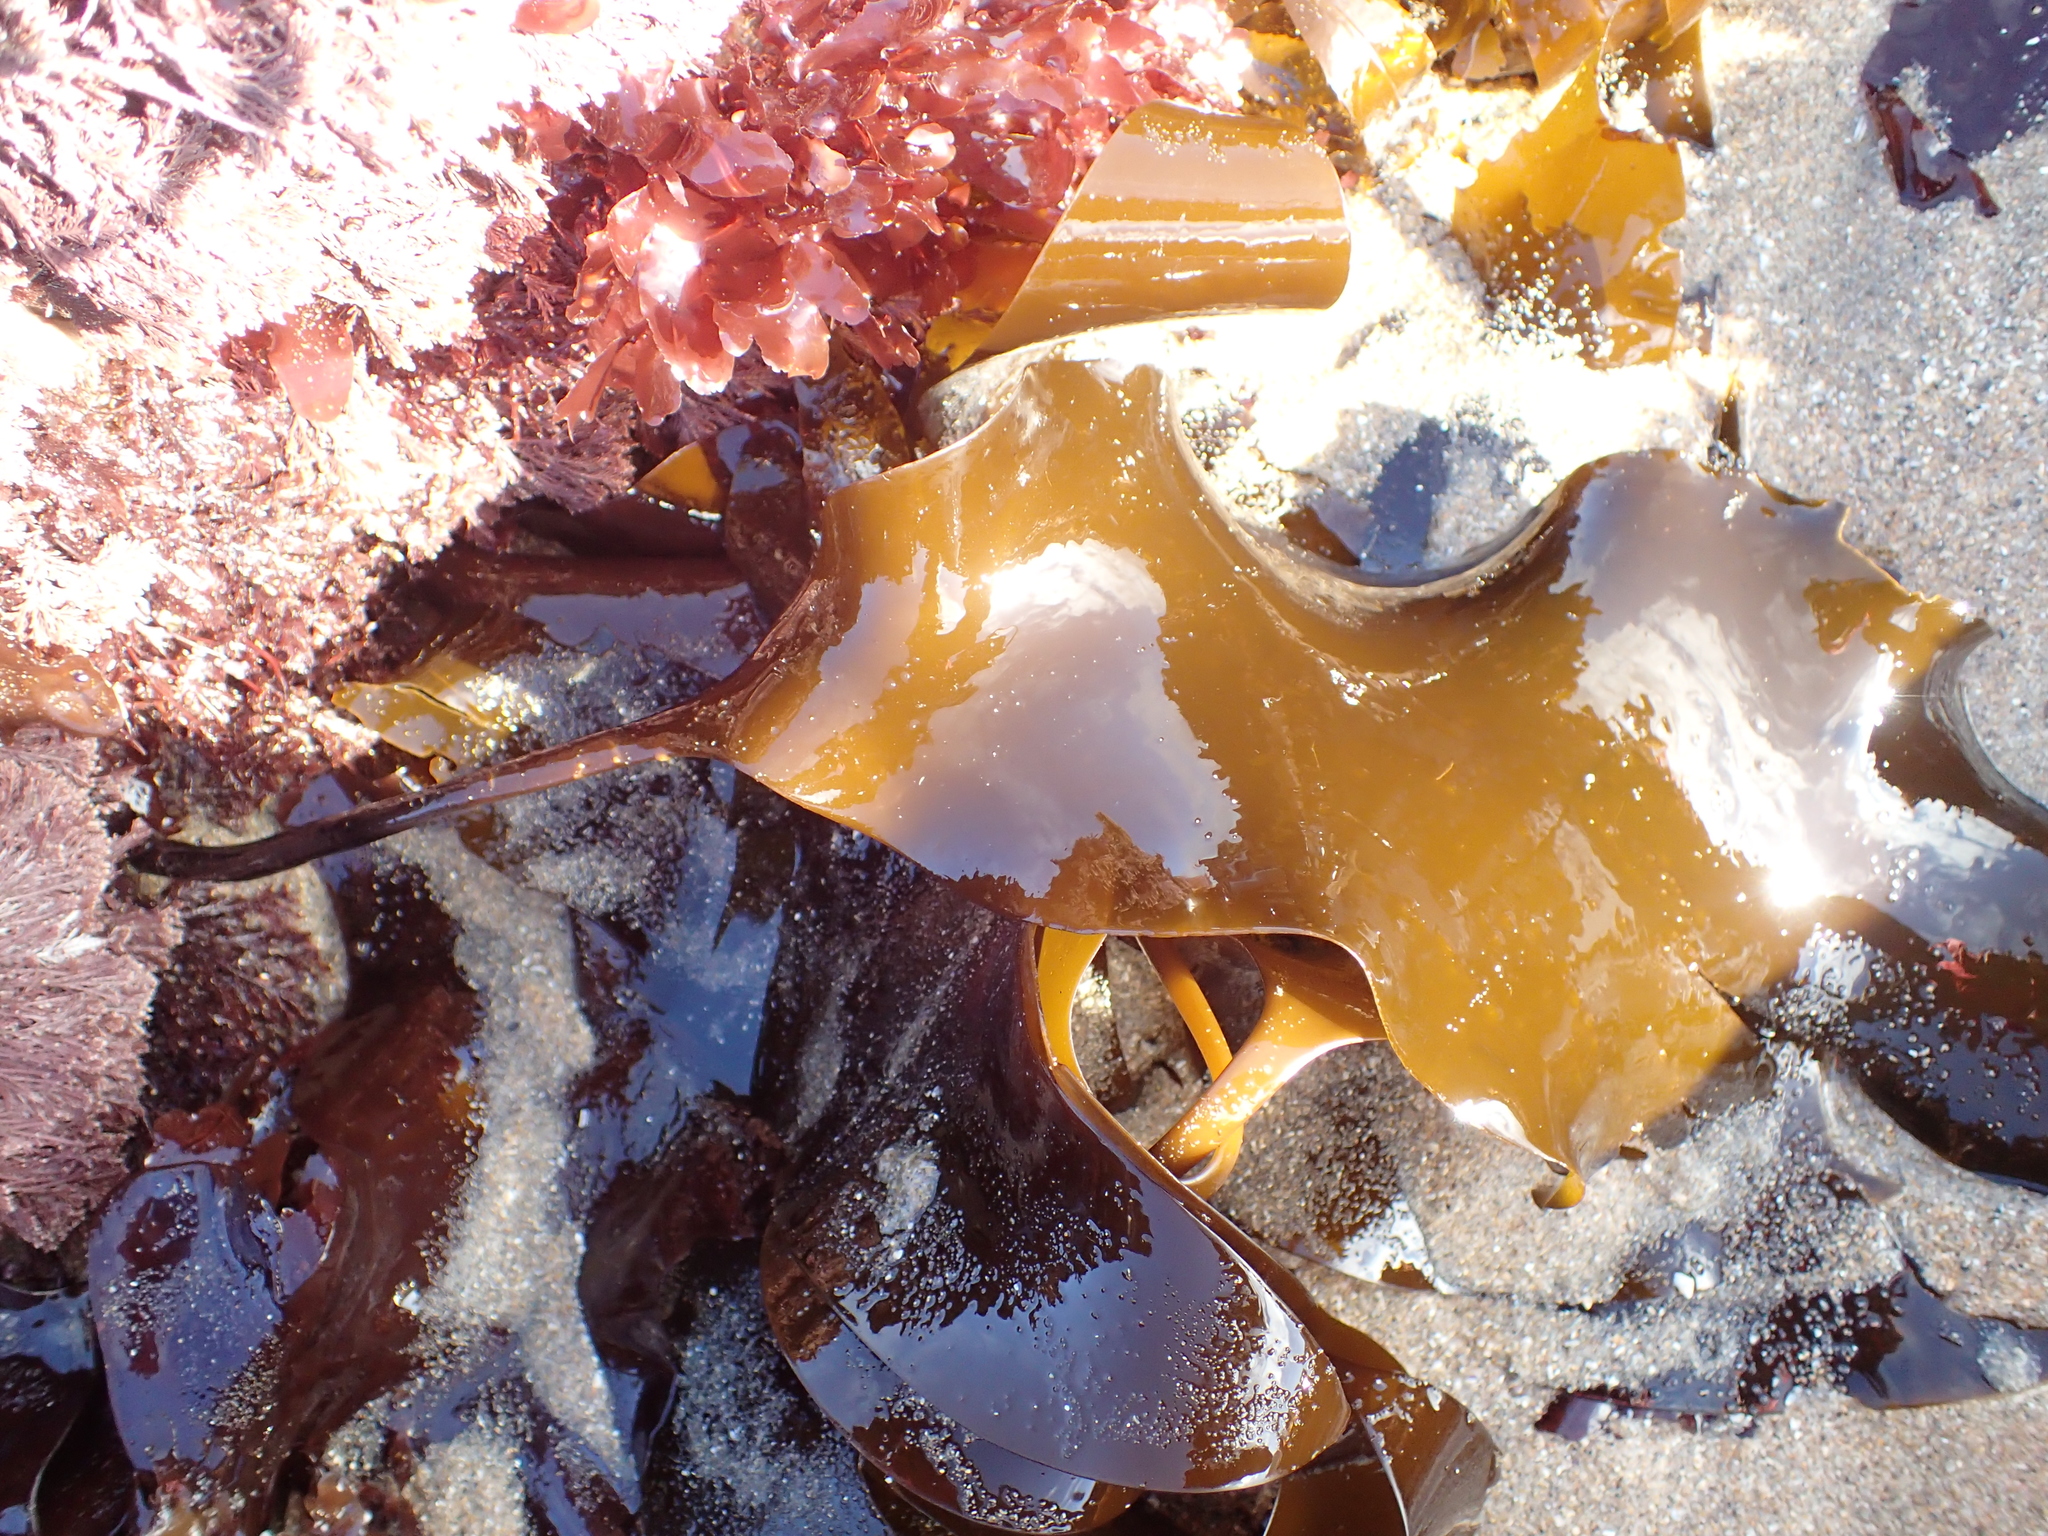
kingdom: Chromista
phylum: Ochrophyta
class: Phaeophyceae
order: Laminariales
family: Laminariaceae
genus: Laminaria
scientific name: Laminaria setchellii
